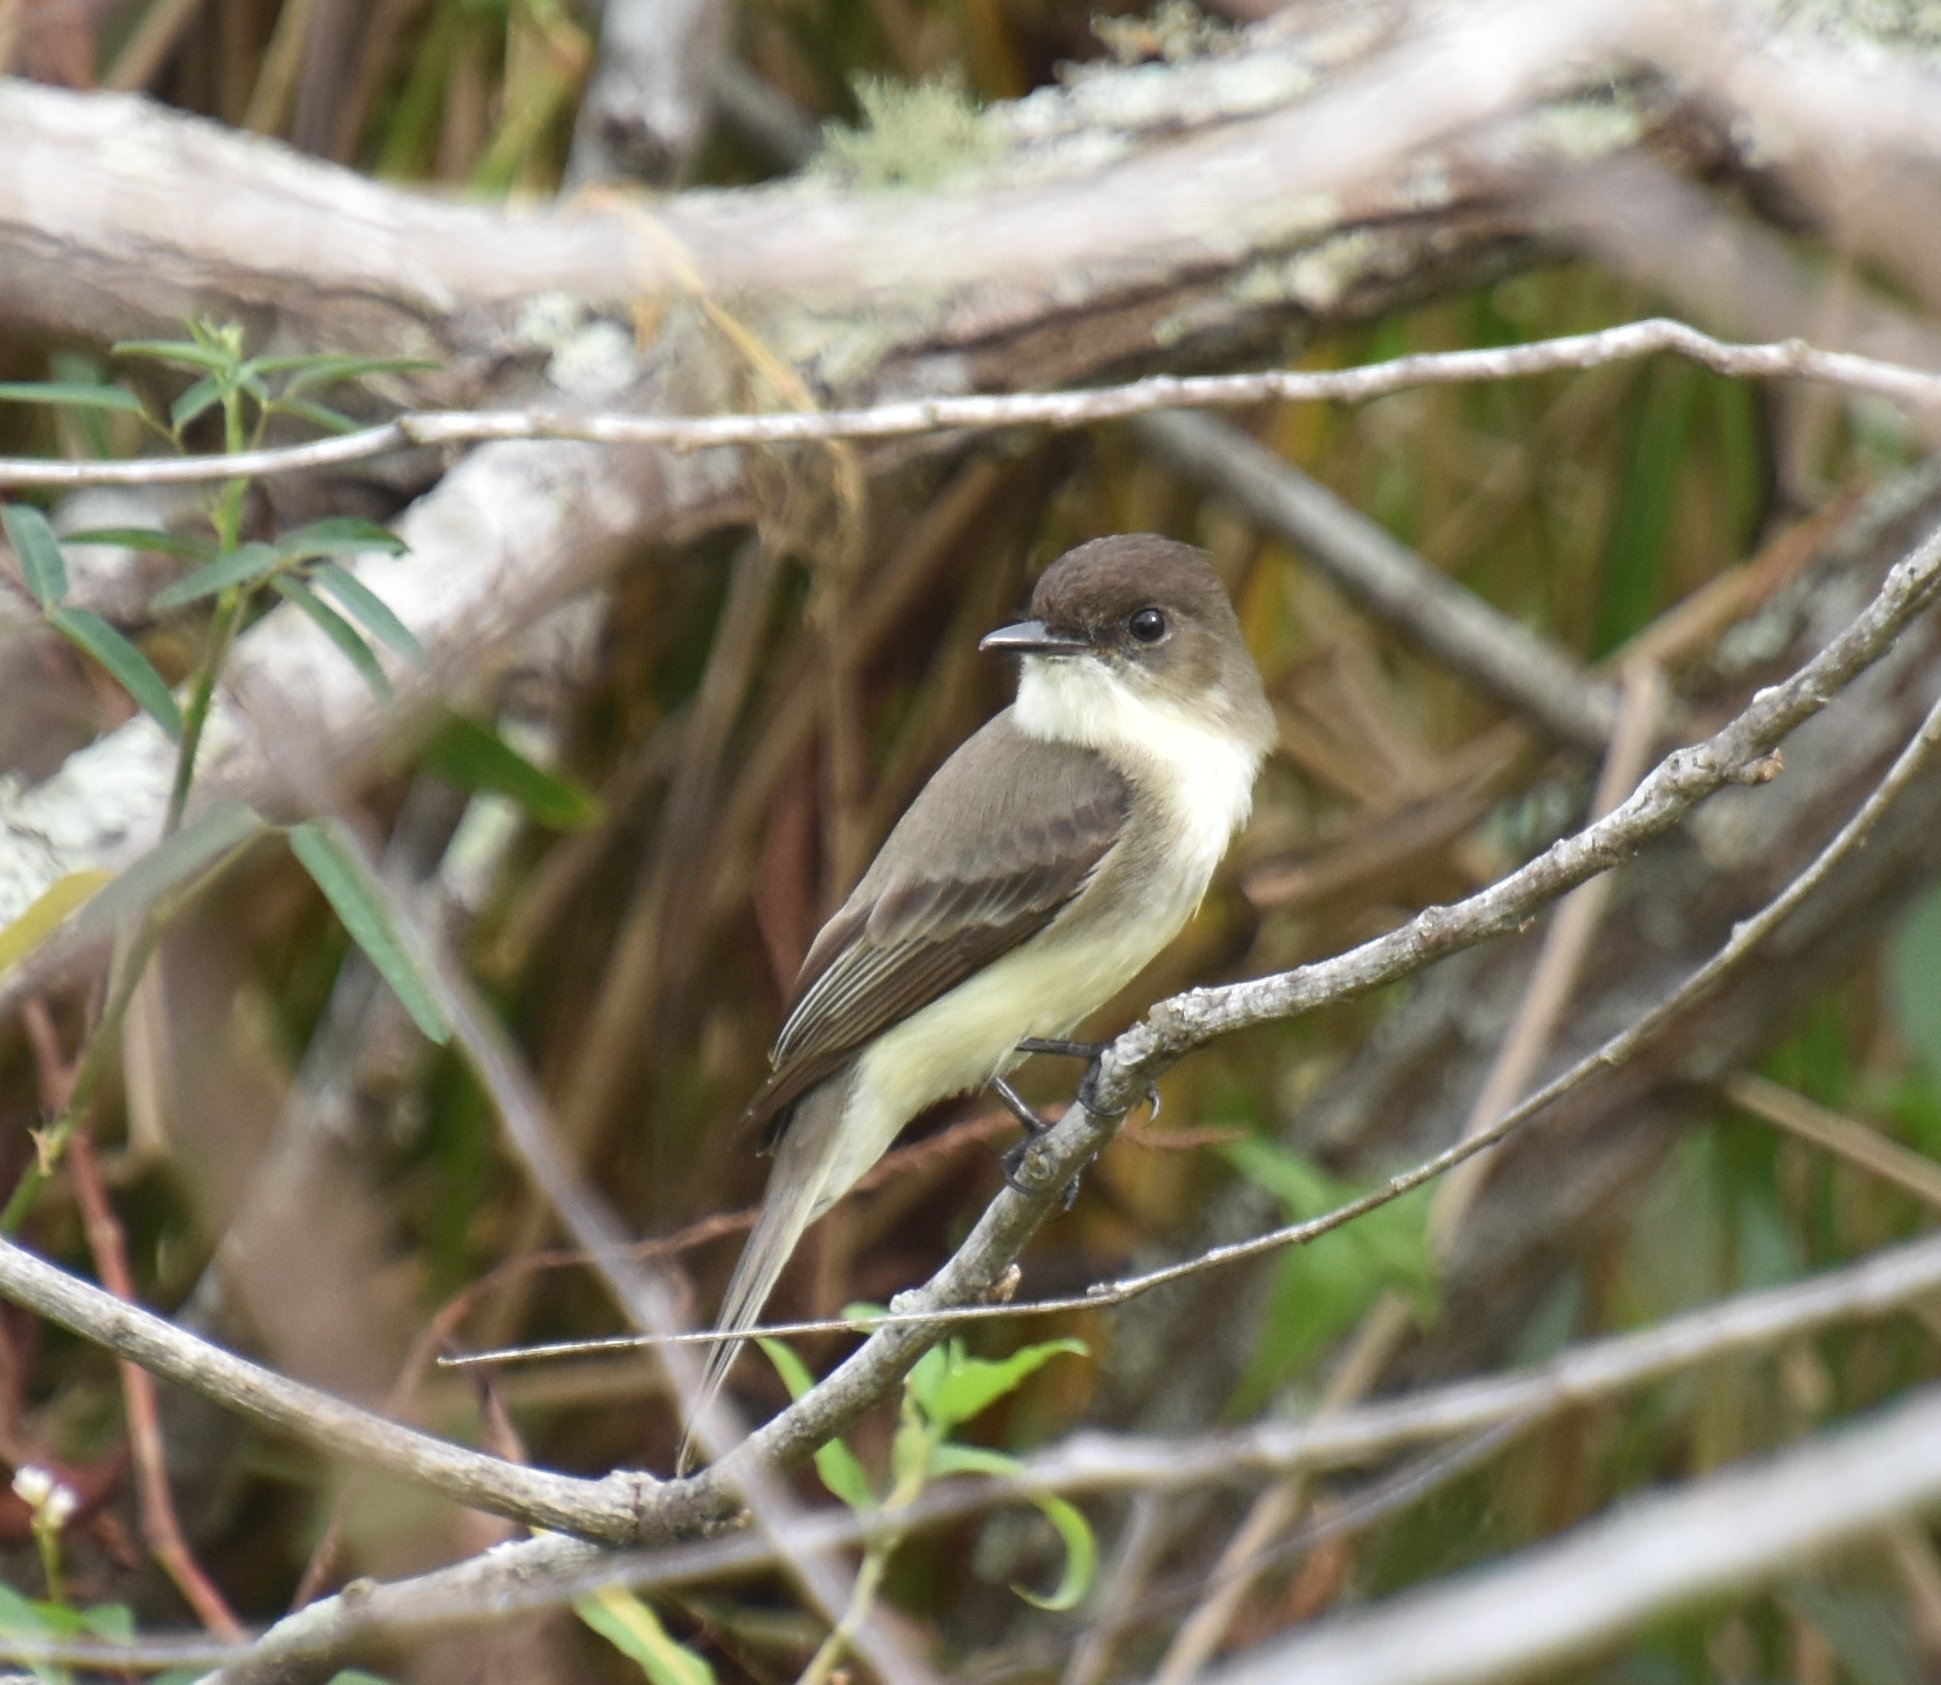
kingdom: Animalia
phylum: Chordata
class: Aves
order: Passeriformes
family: Tyrannidae
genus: Sayornis
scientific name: Sayornis phoebe
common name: Eastern phoebe
